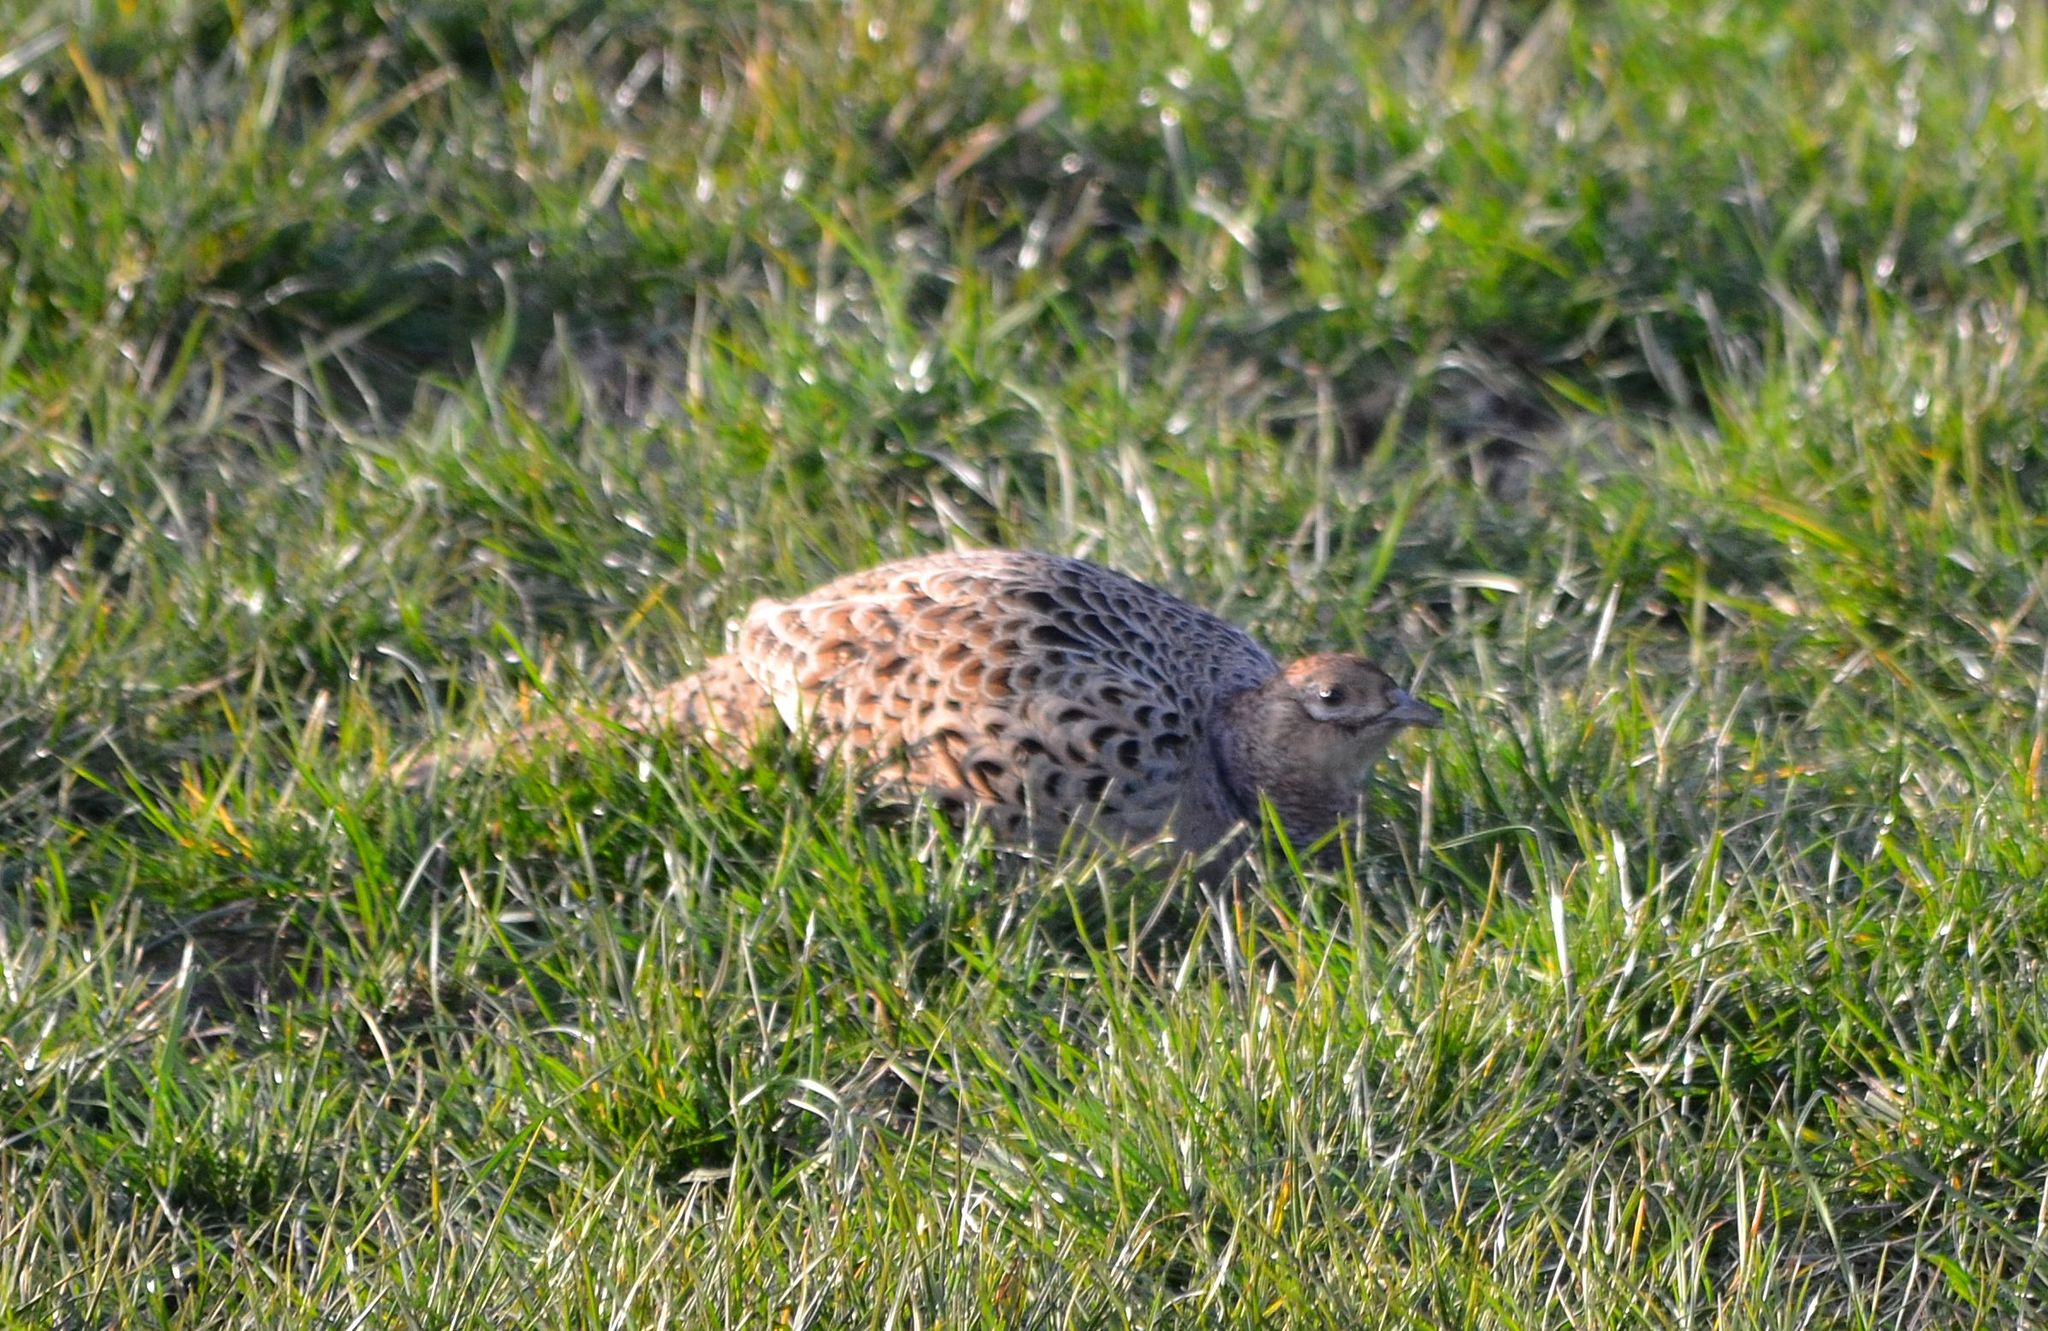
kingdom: Animalia
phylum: Chordata
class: Aves
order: Galliformes
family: Phasianidae
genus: Phasianus
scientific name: Phasianus colchicus
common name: Common pheasant
